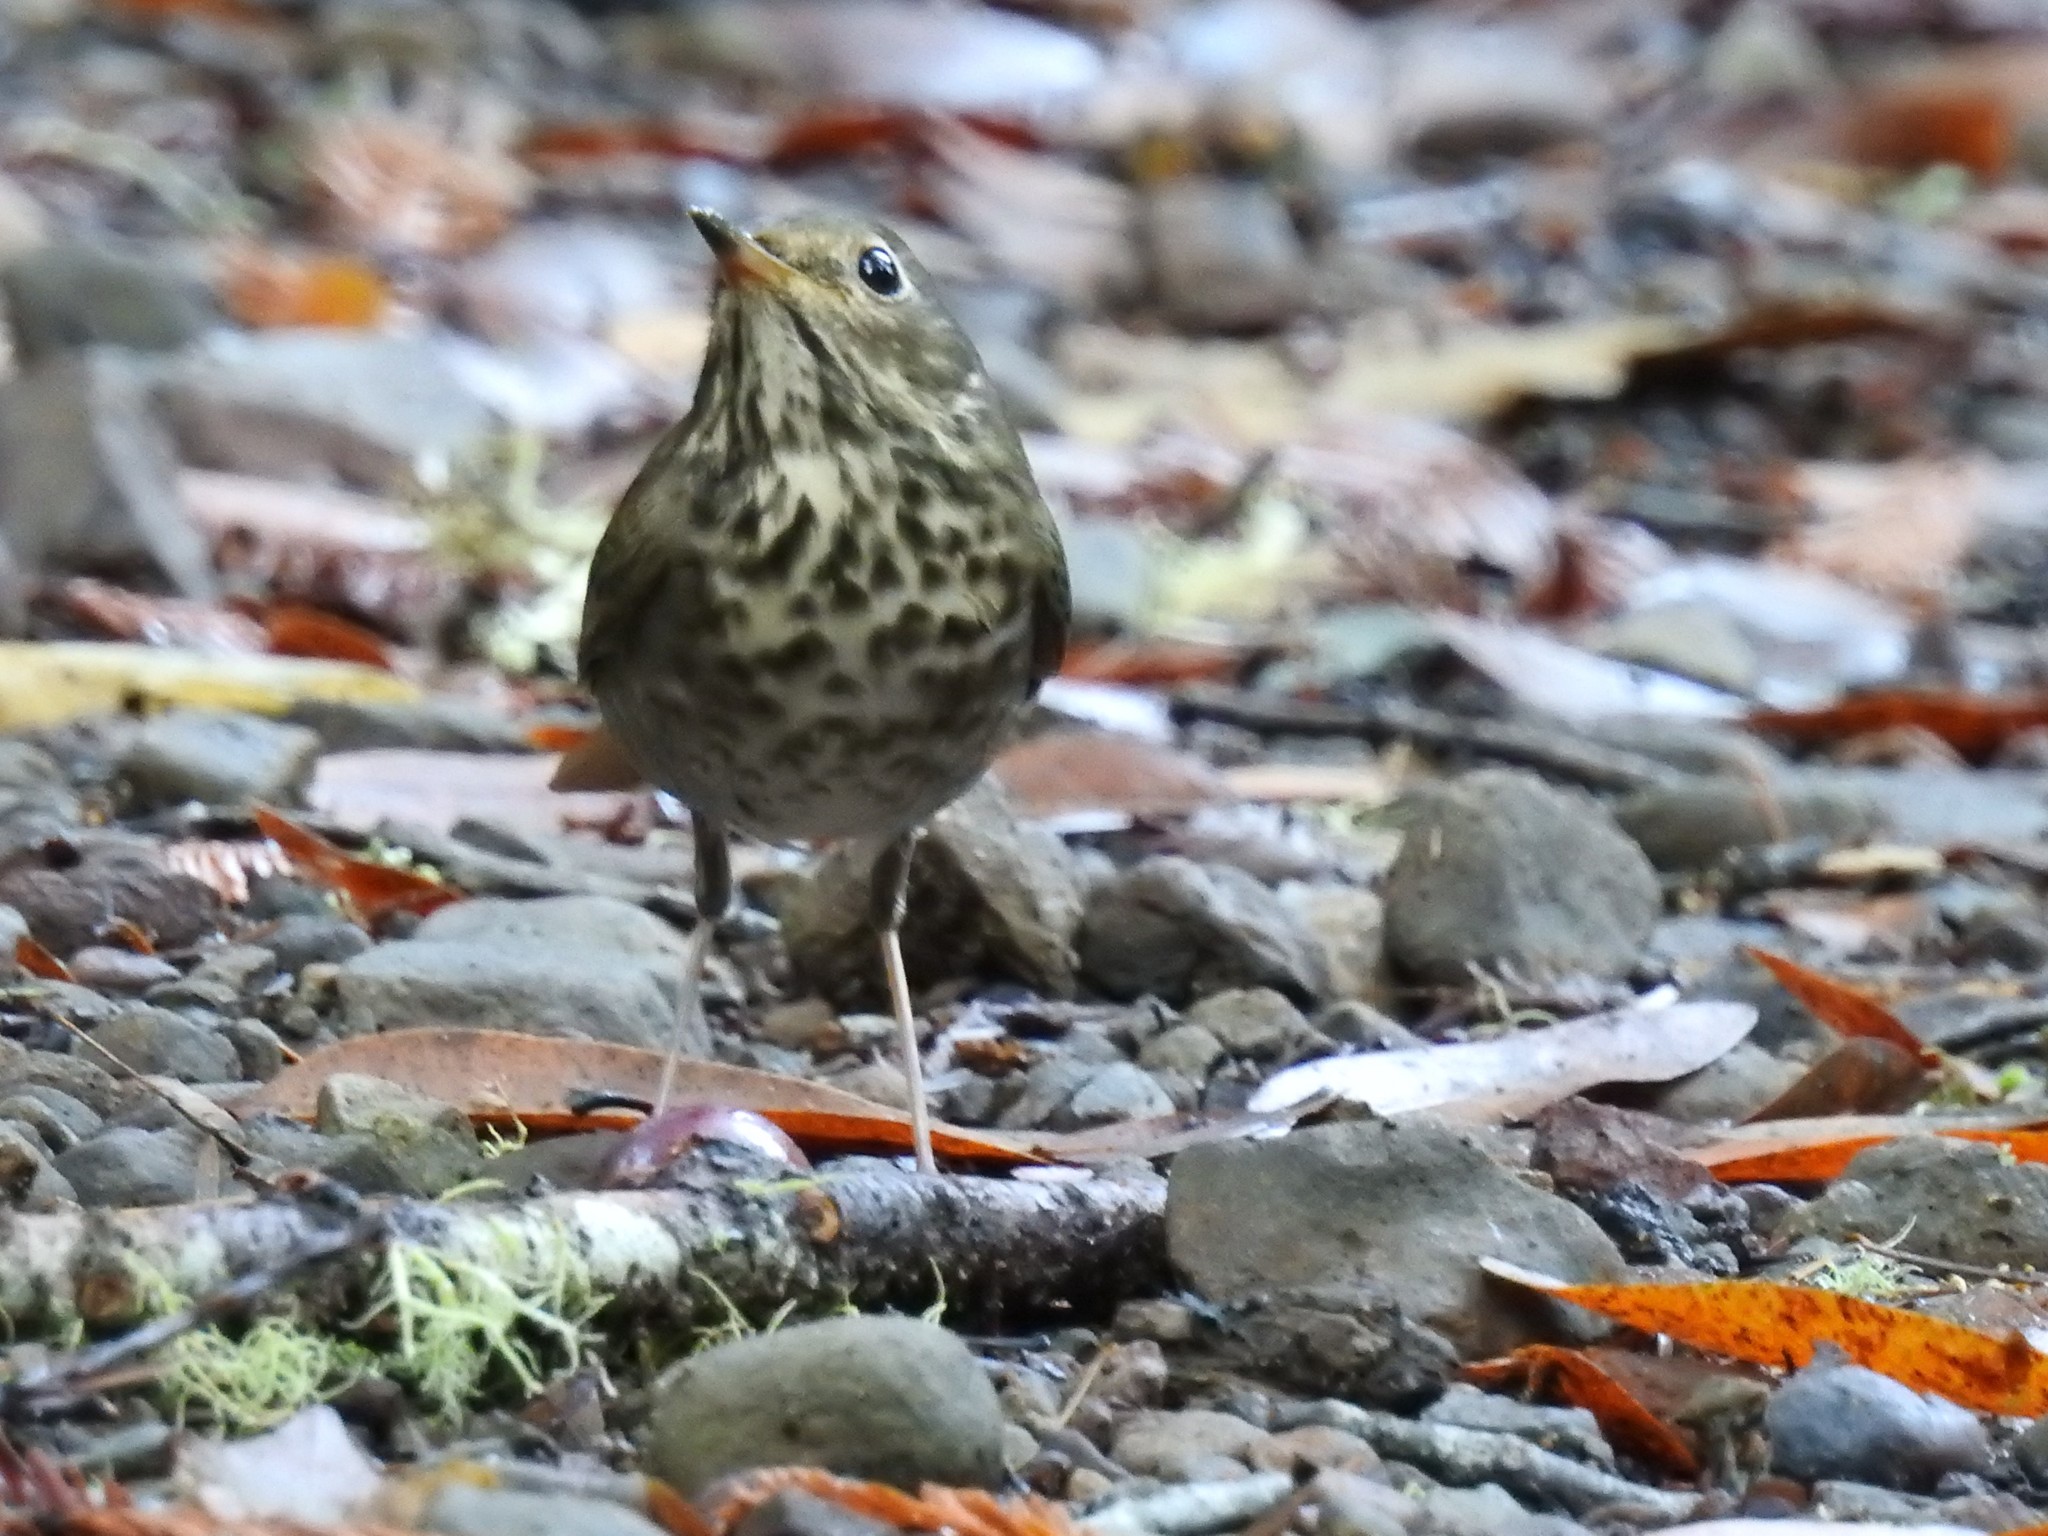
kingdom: Animalia
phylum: Chordata
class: Aves
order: Passeriformes
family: Turdidae
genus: Catharus
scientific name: Catharus guttatus
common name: Hermit thrush
